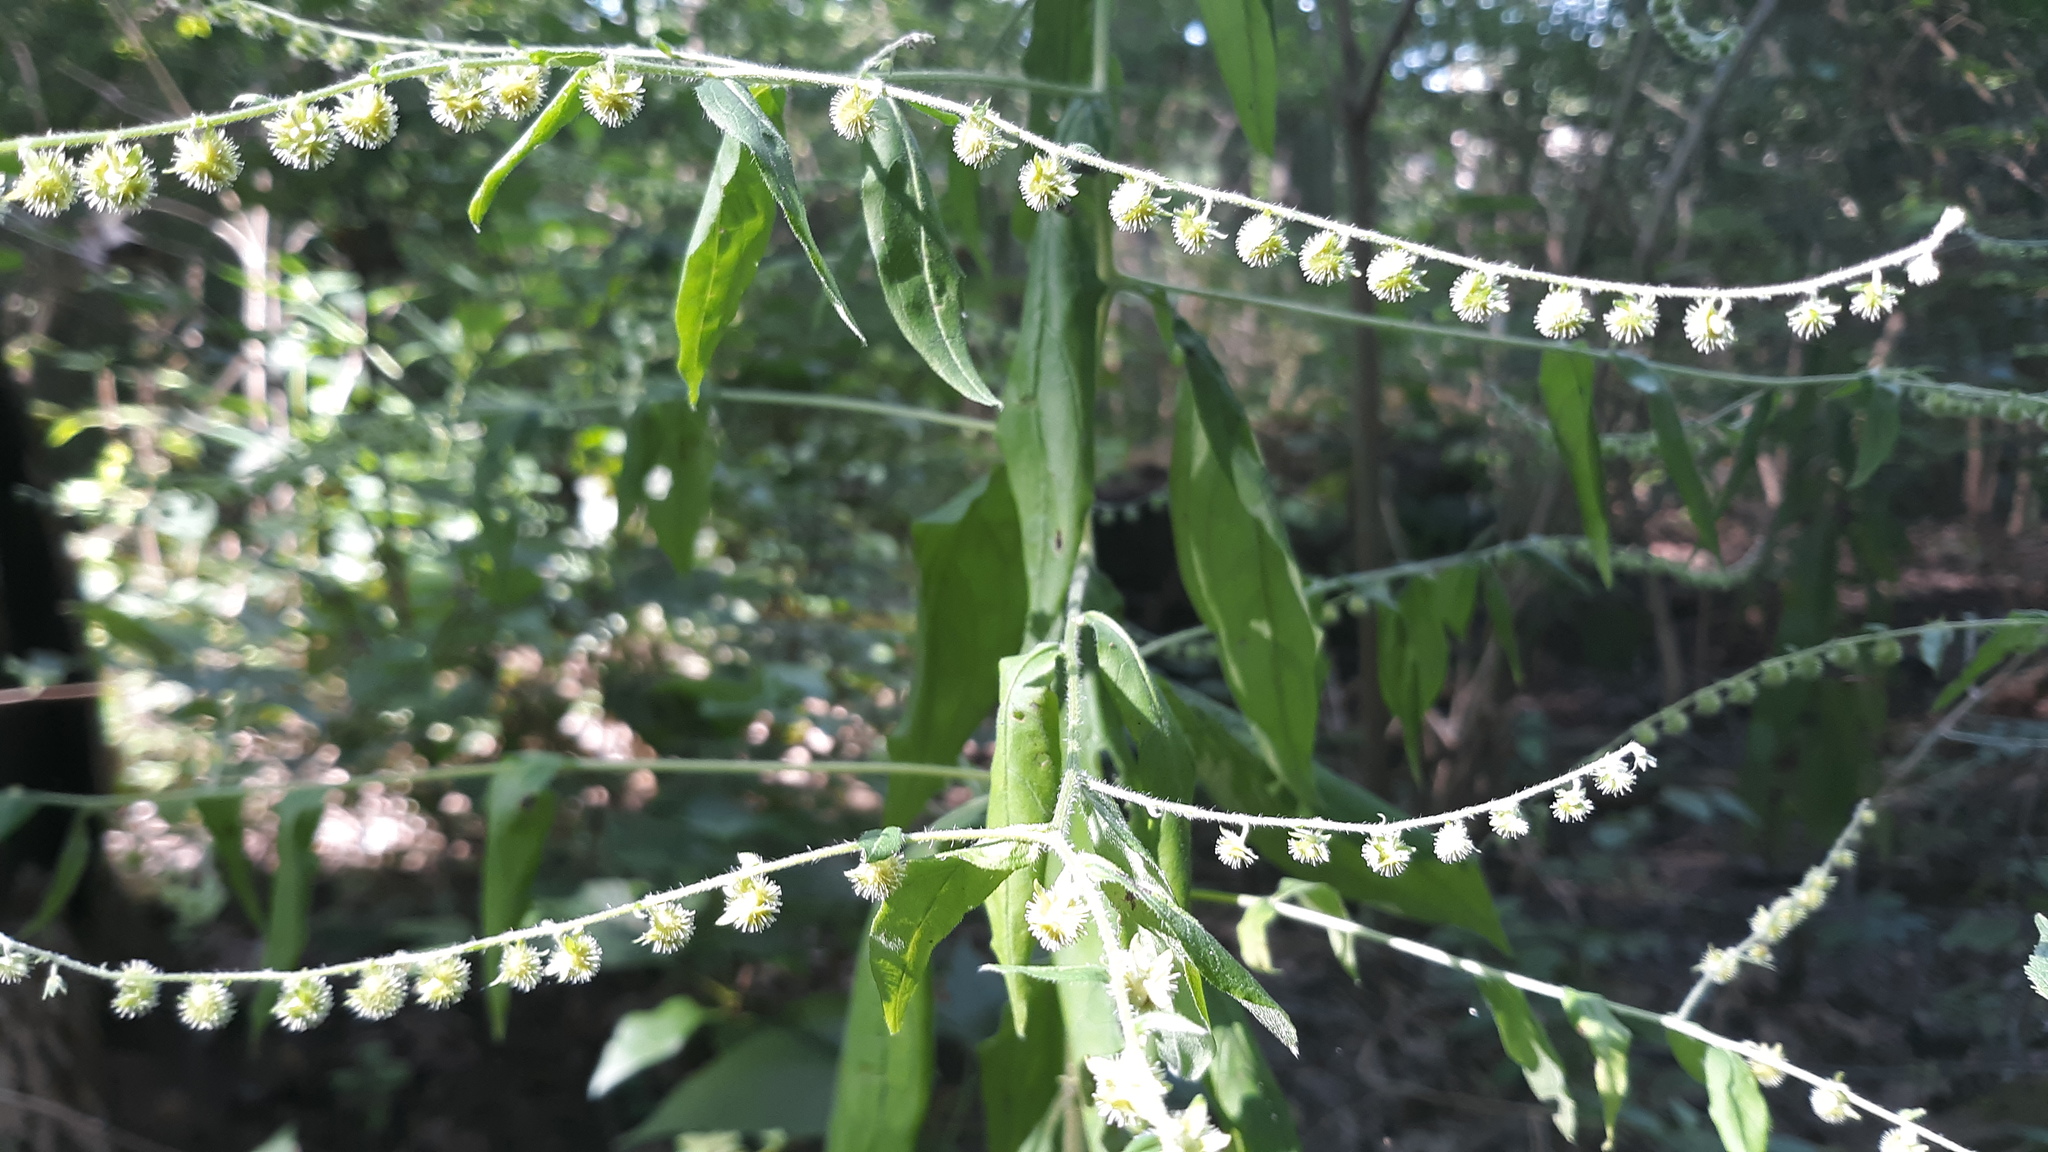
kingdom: Plantae
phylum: Tracheophyta
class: Magnoliopsida
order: Boraginales
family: Boraginaceae
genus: Hackelia
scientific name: Hackelia virginiana
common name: Beggar's-lice
